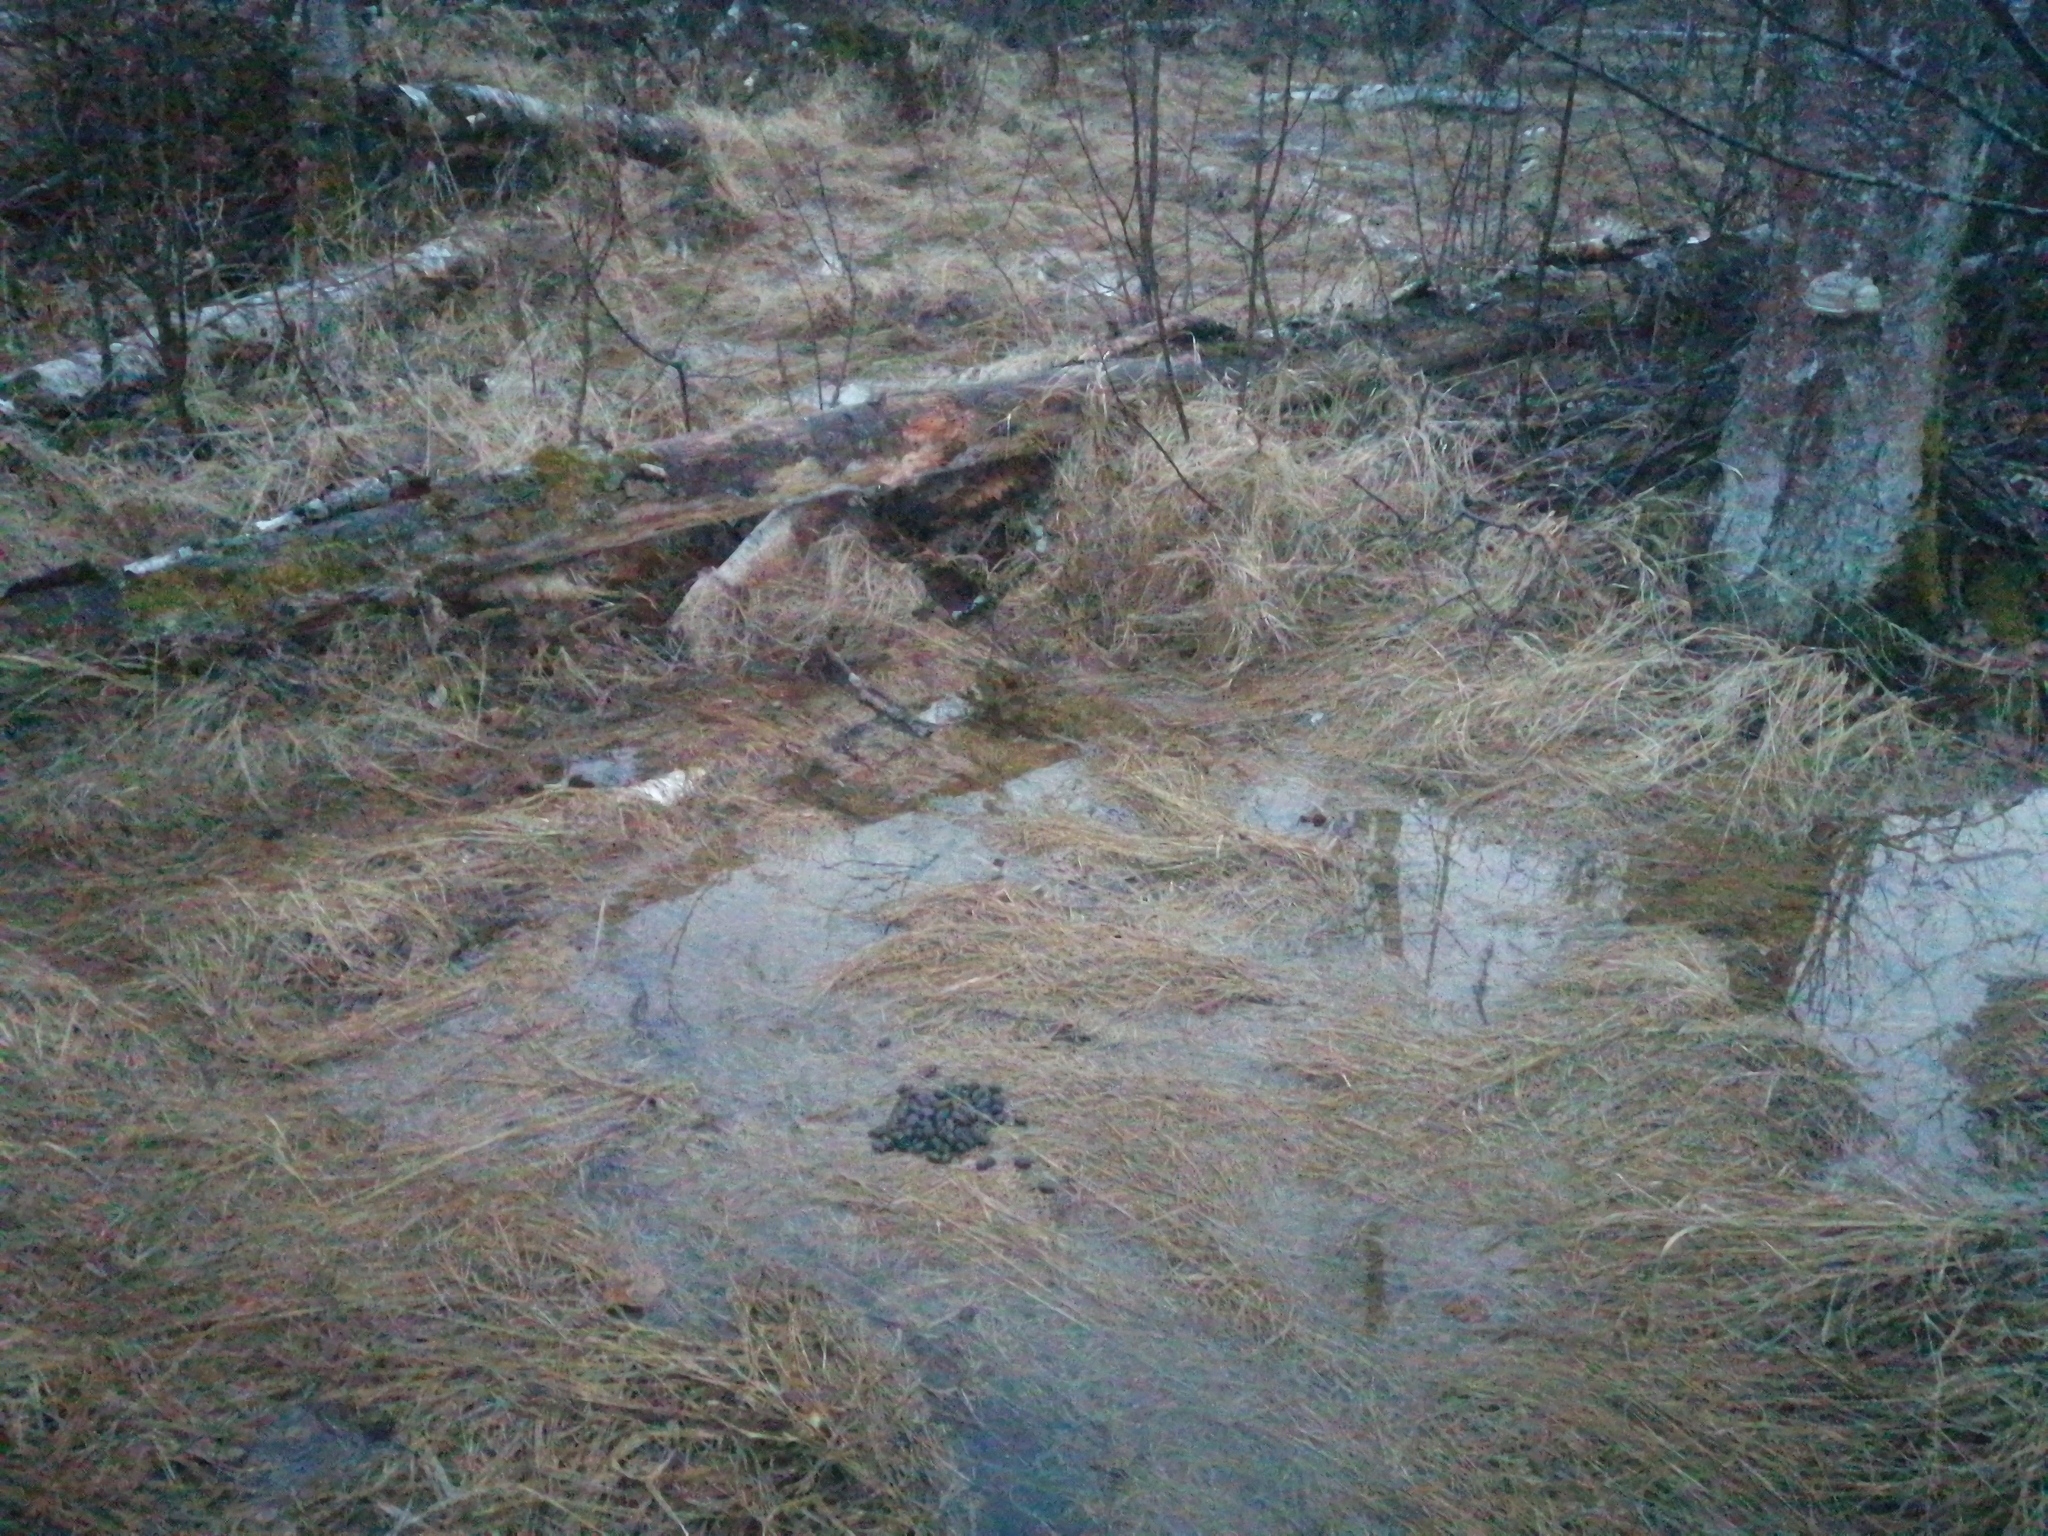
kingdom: Animalia
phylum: Chordata
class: Mammalia
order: Artiodactyla
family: Cervidae
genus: Alces
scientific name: Alces alces
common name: Moose
